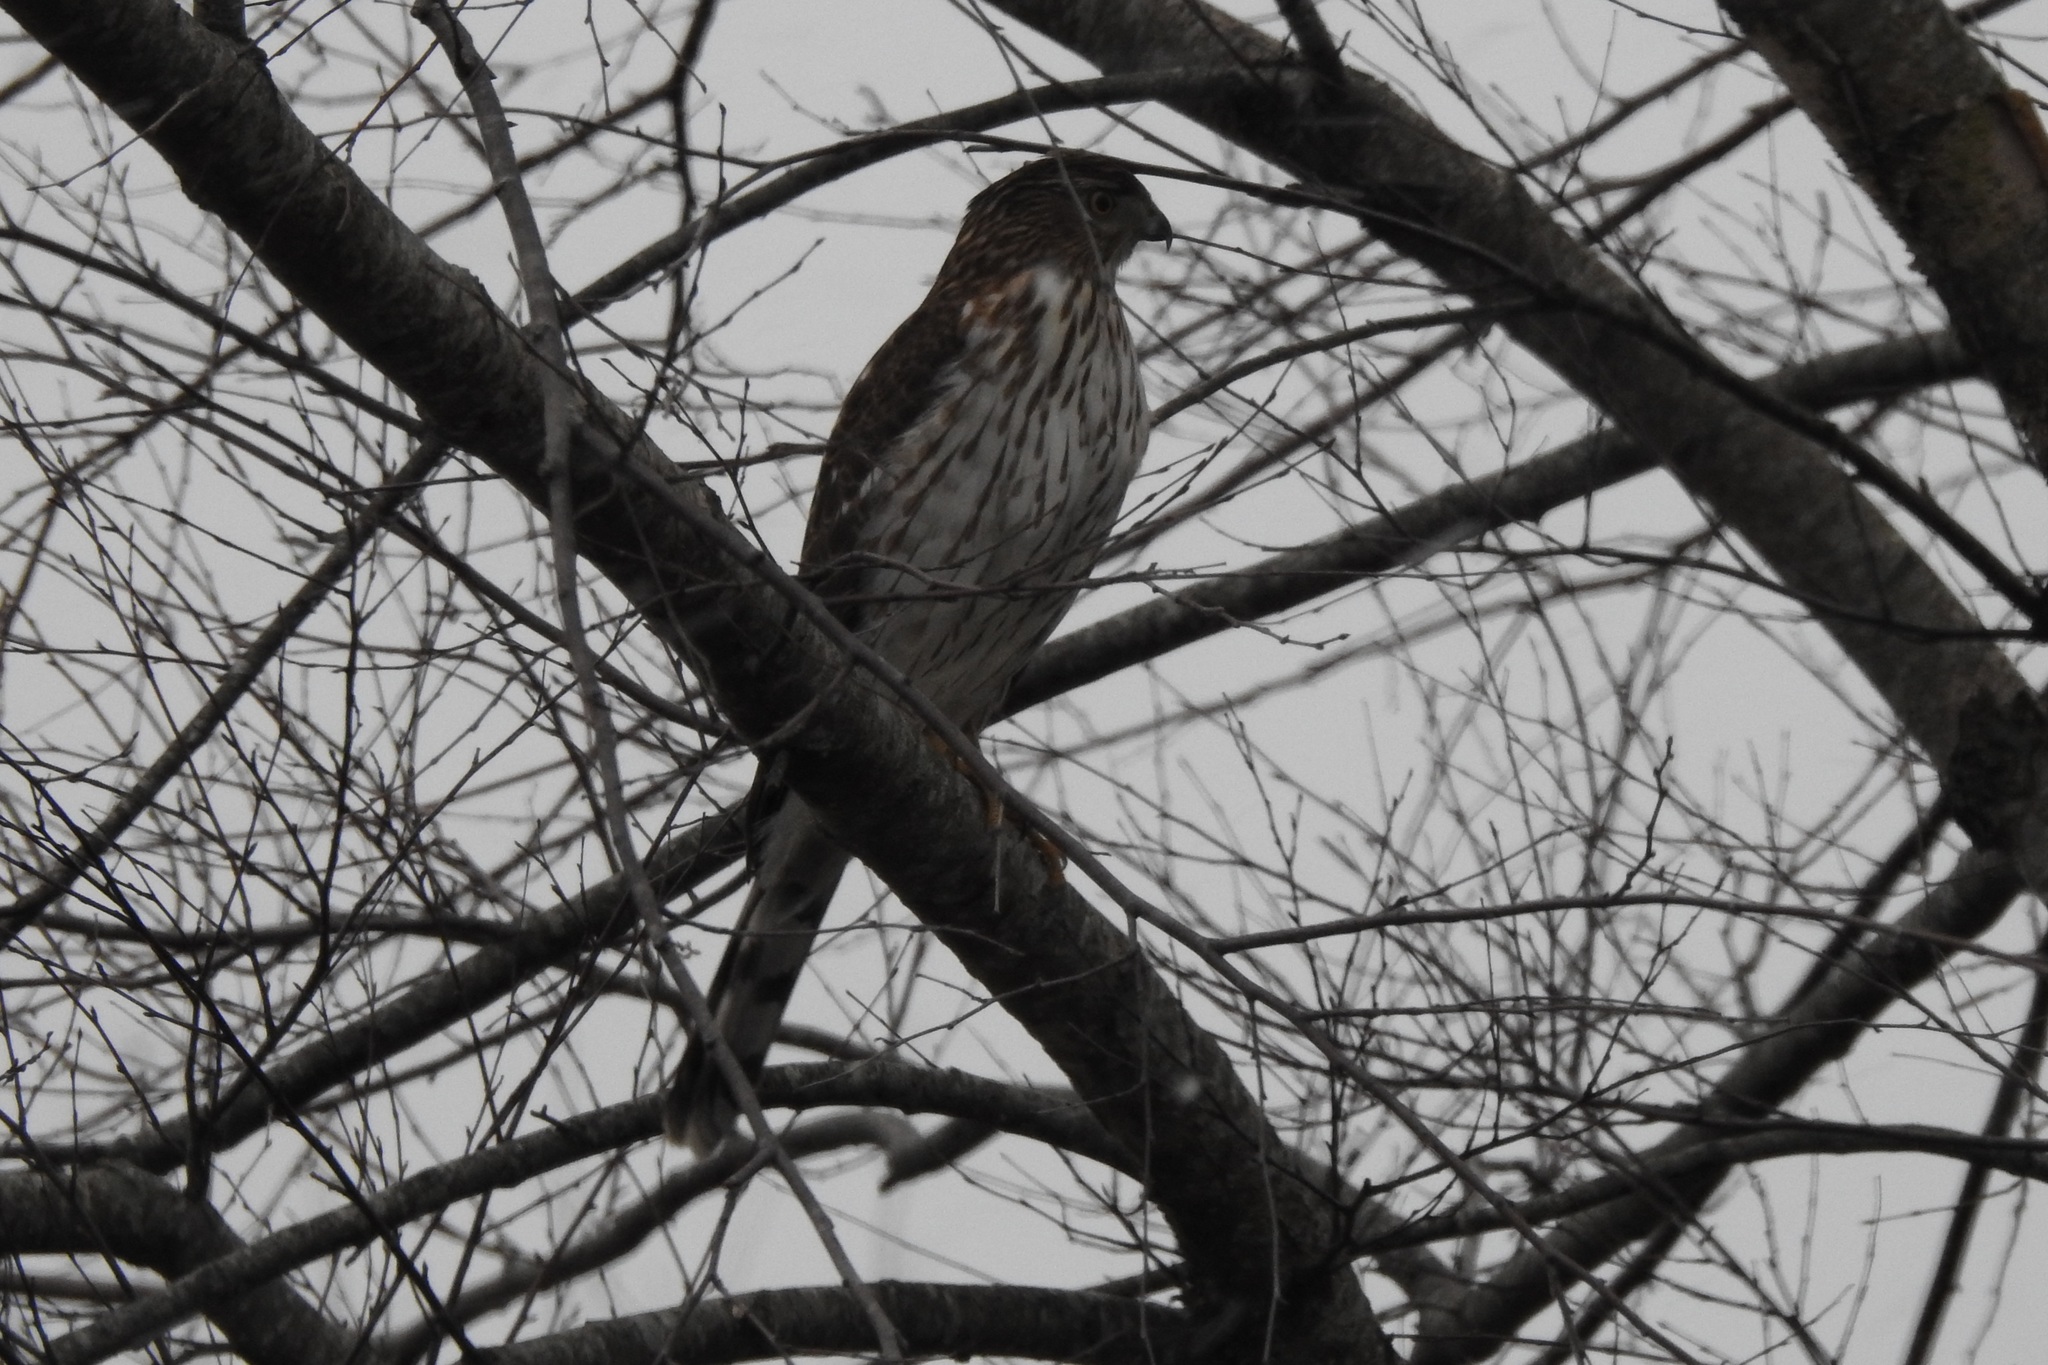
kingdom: Animalia
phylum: Chordata
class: Aves
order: Accipitriformes
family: Accipitridae
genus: Accipiter
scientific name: Accipiter cooperii
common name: Cooper's hawk
